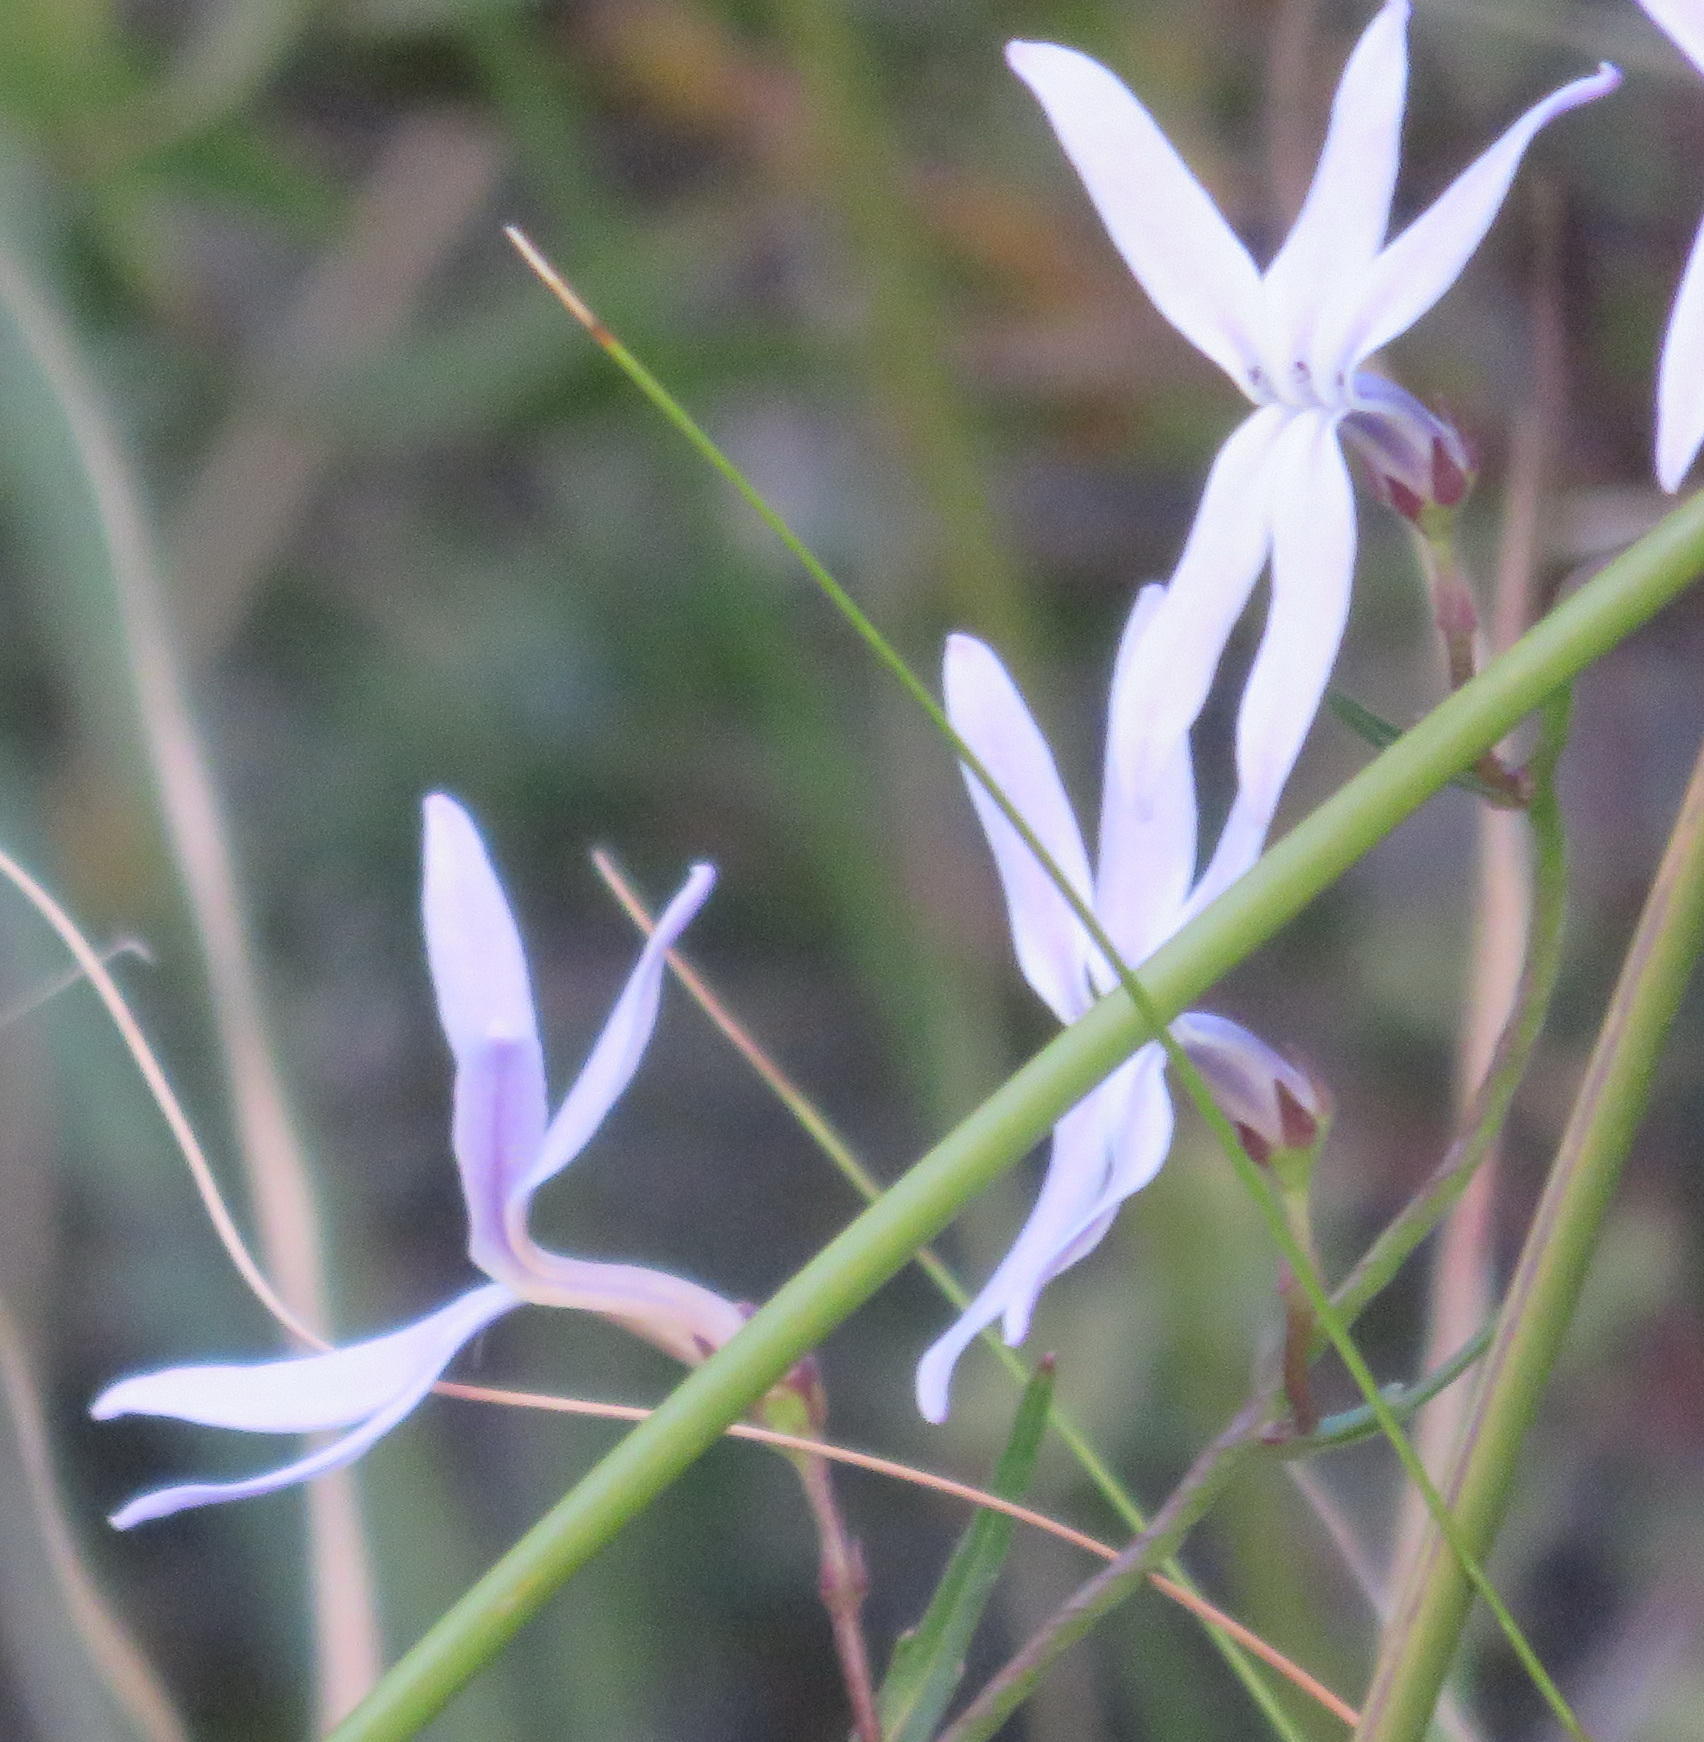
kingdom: Plantae
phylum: Tracheophyta
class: Magnoliopsida
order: Asterales
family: Campanulaceae
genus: Cyphia
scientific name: Cyphia volubilis
